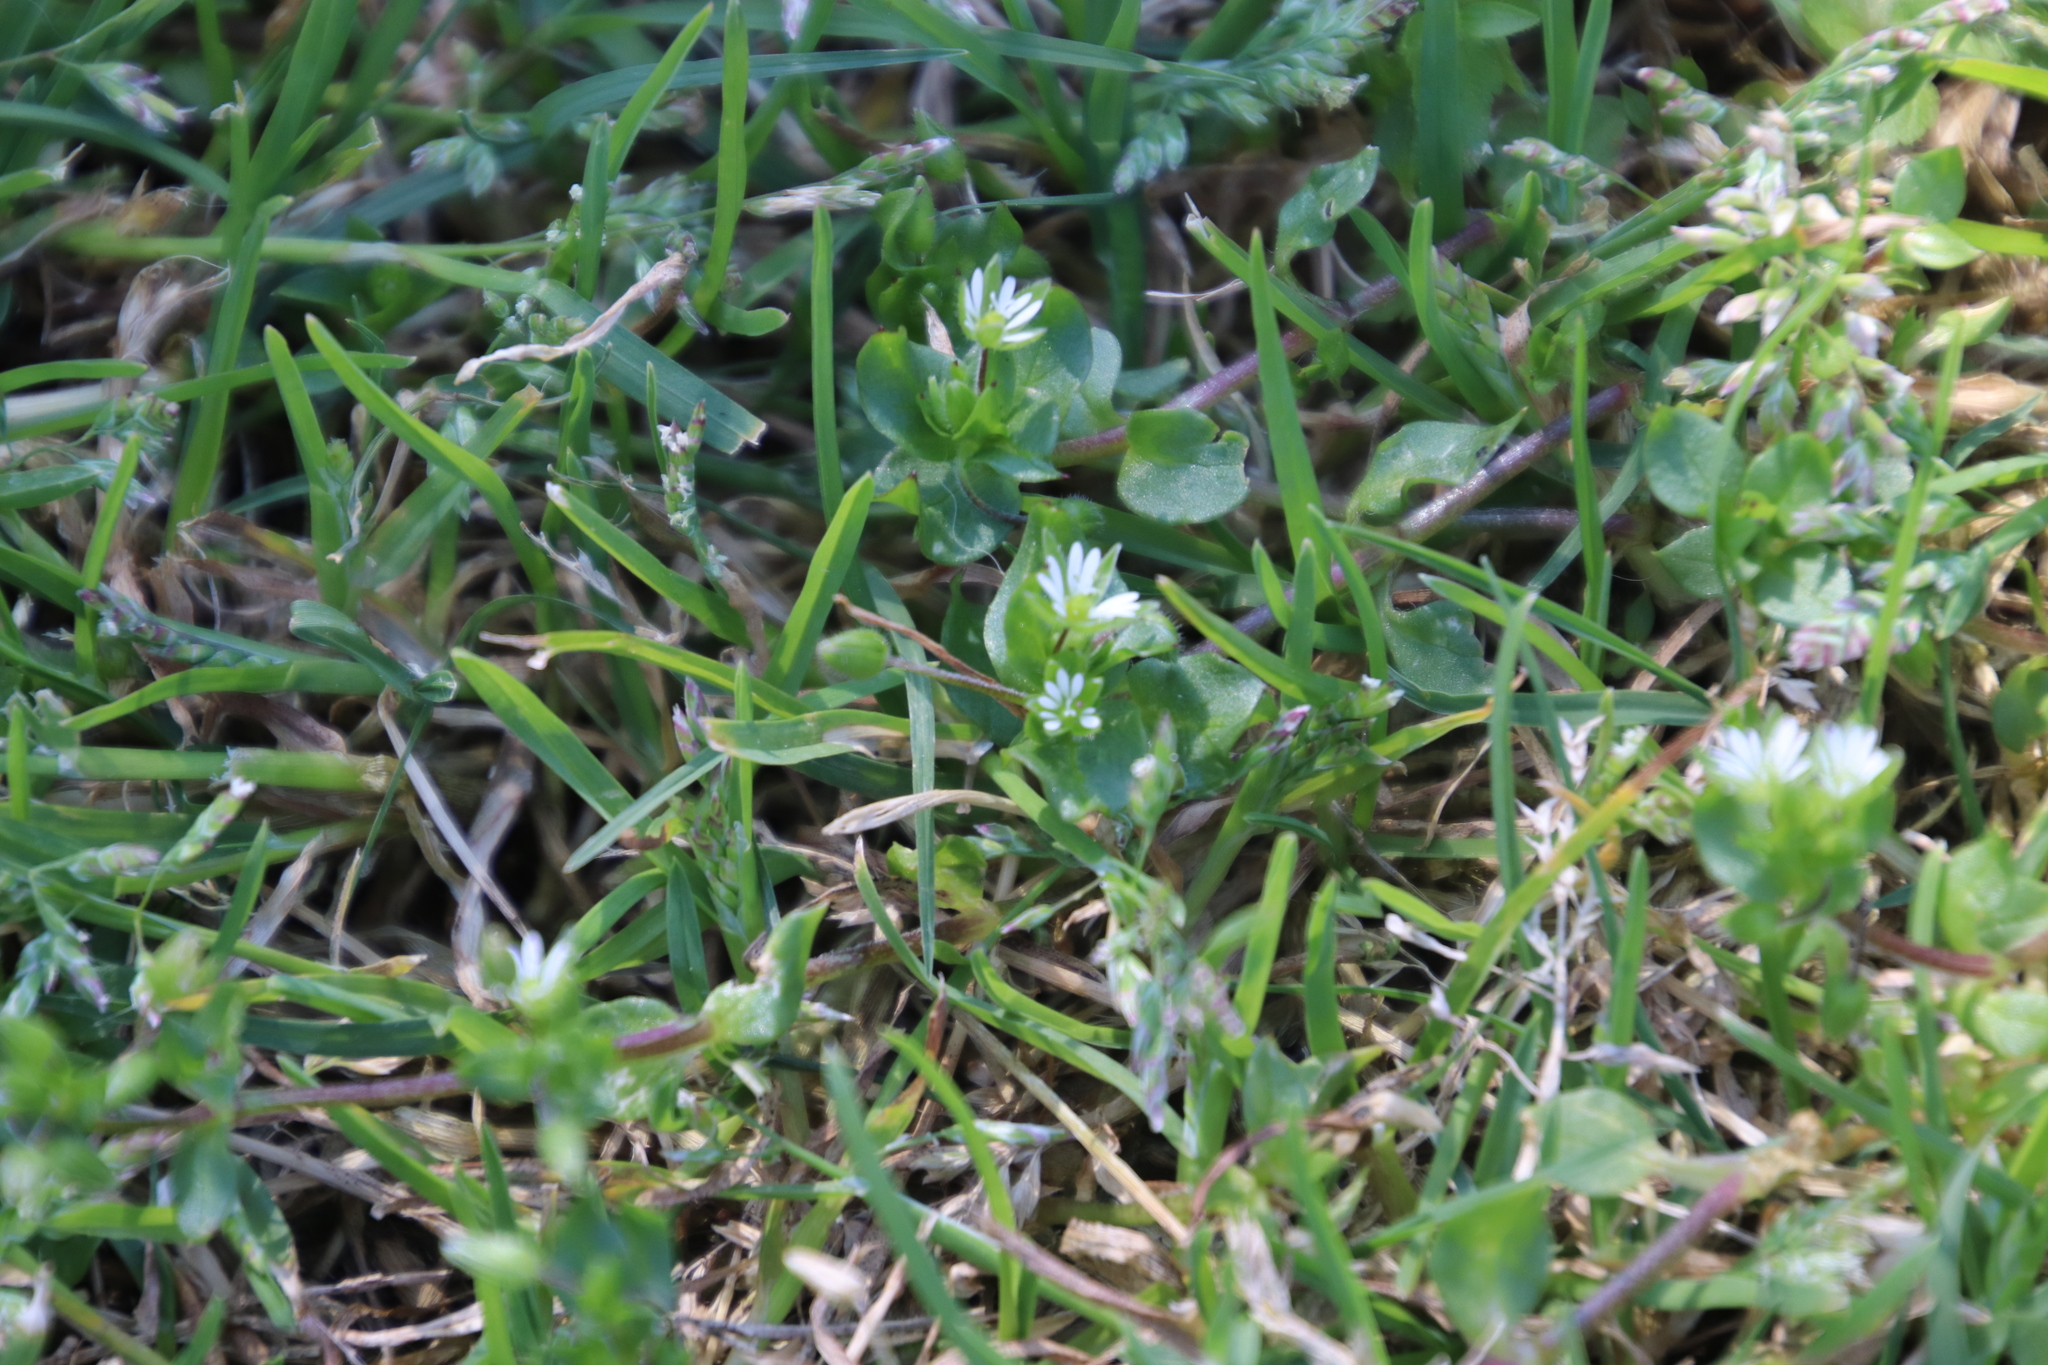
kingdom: Plantae
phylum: Tracheophyta
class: Magnoliopsida
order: Caryophyllales
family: Caryophyllaceae
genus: Stellaria
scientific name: Stellaria media
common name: Common chickweed
